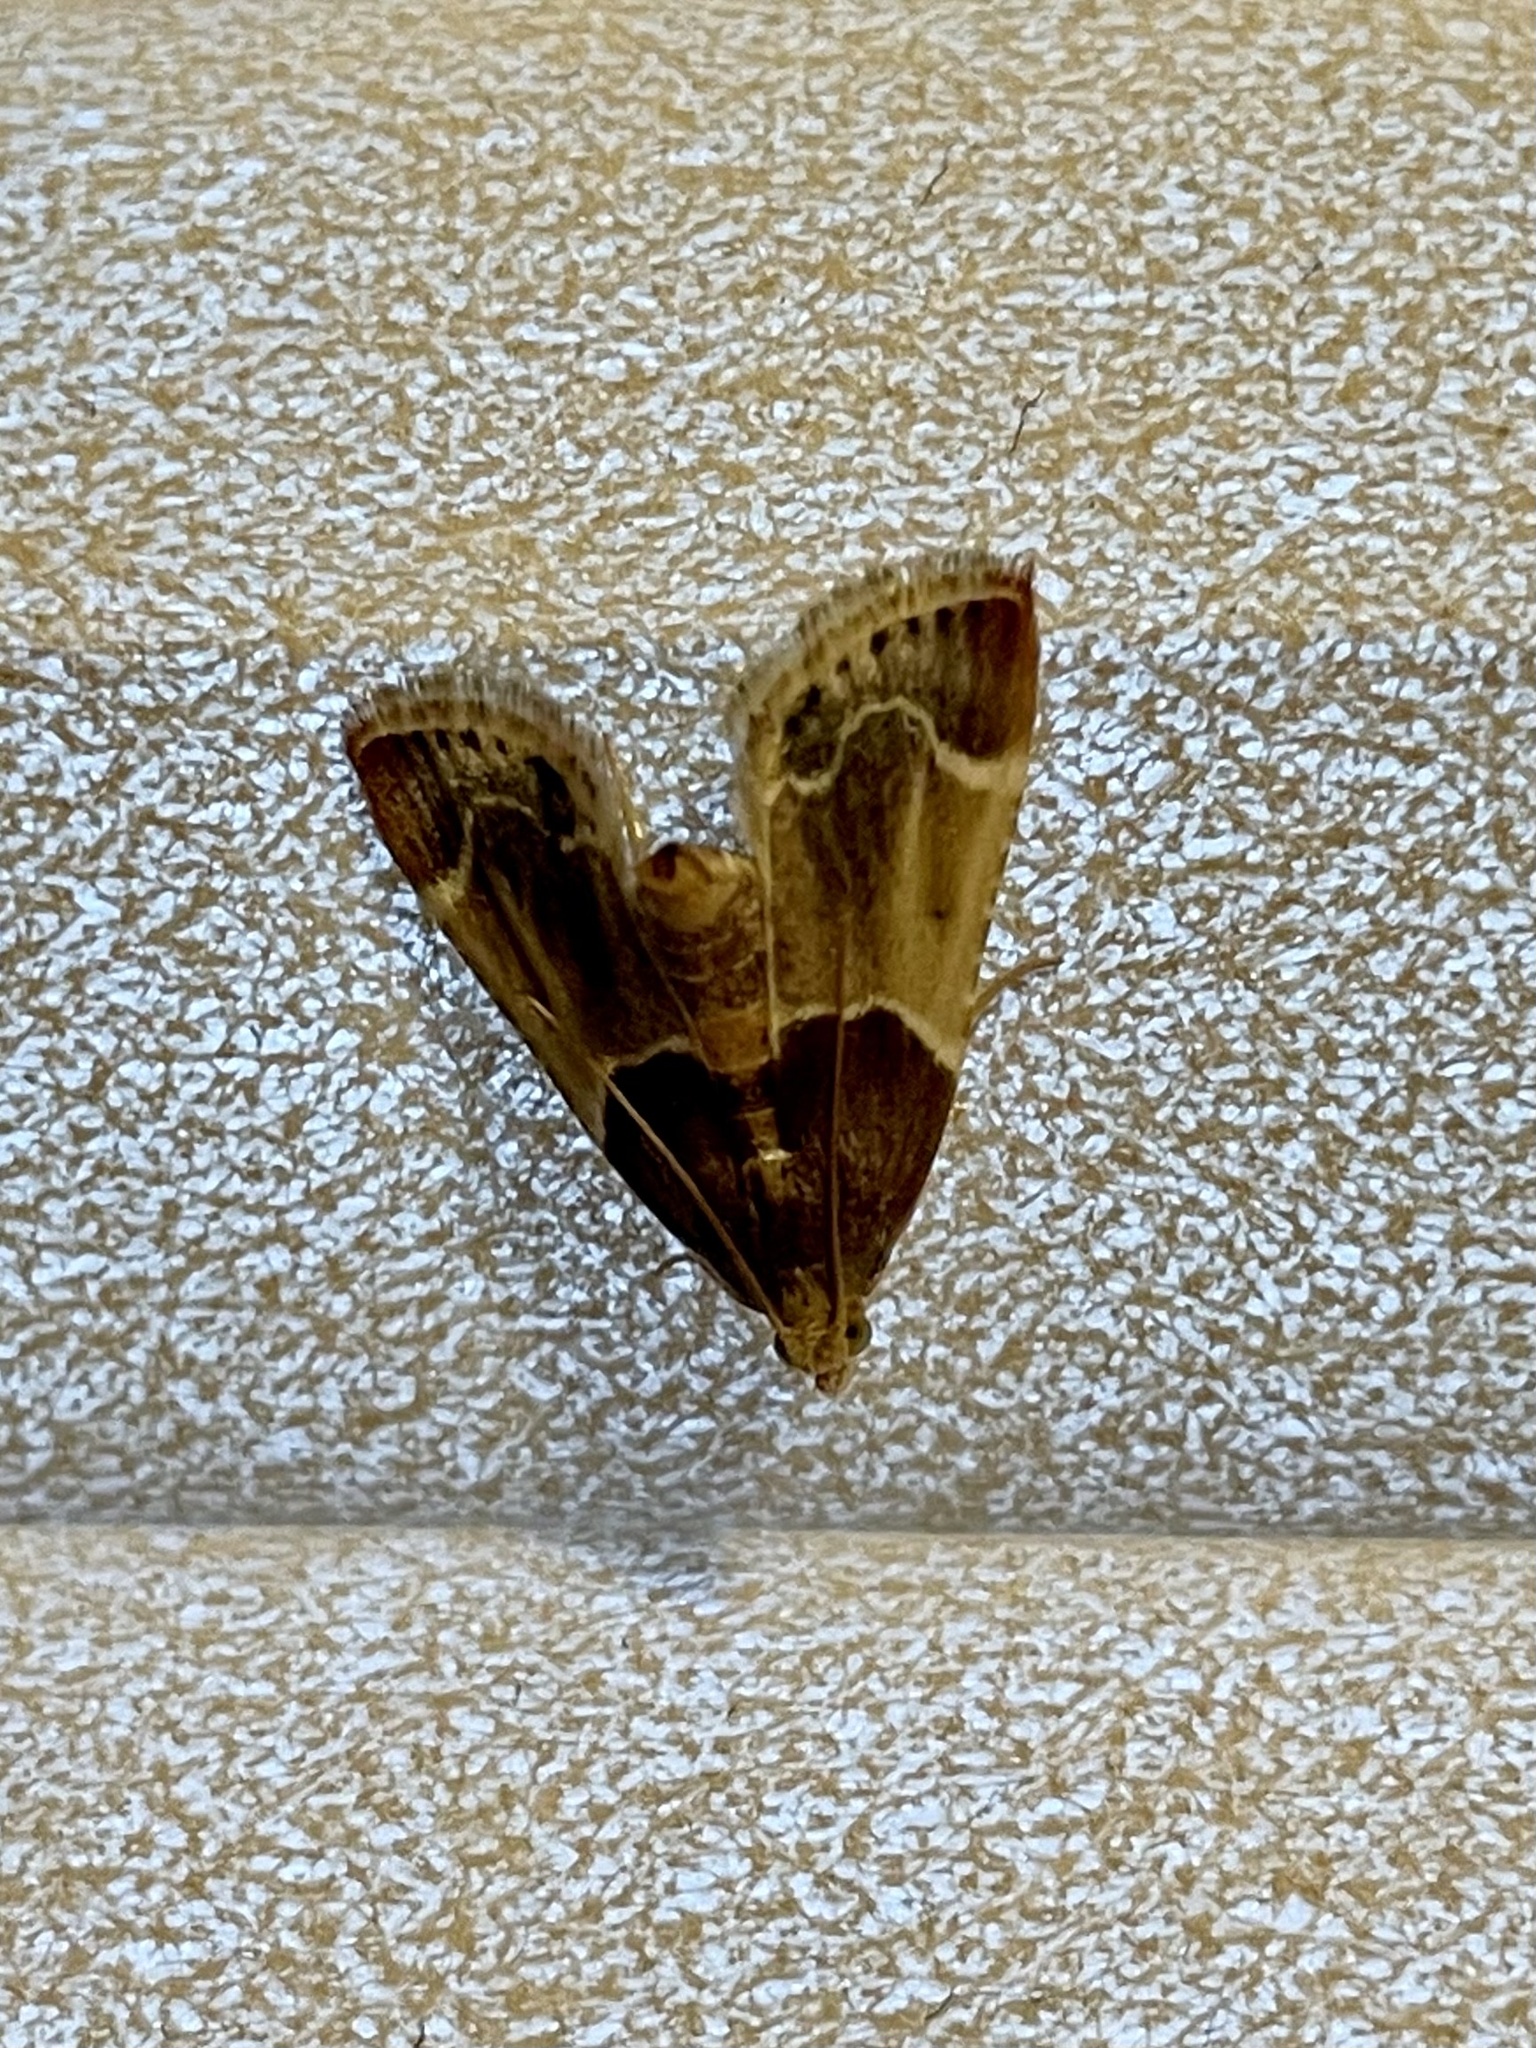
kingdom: Animalia
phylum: Arthropoda
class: Insecta
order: Lepidoptera
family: Pyralidae
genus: Pyralis
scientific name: Pyralis farinalis
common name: Meal moth
